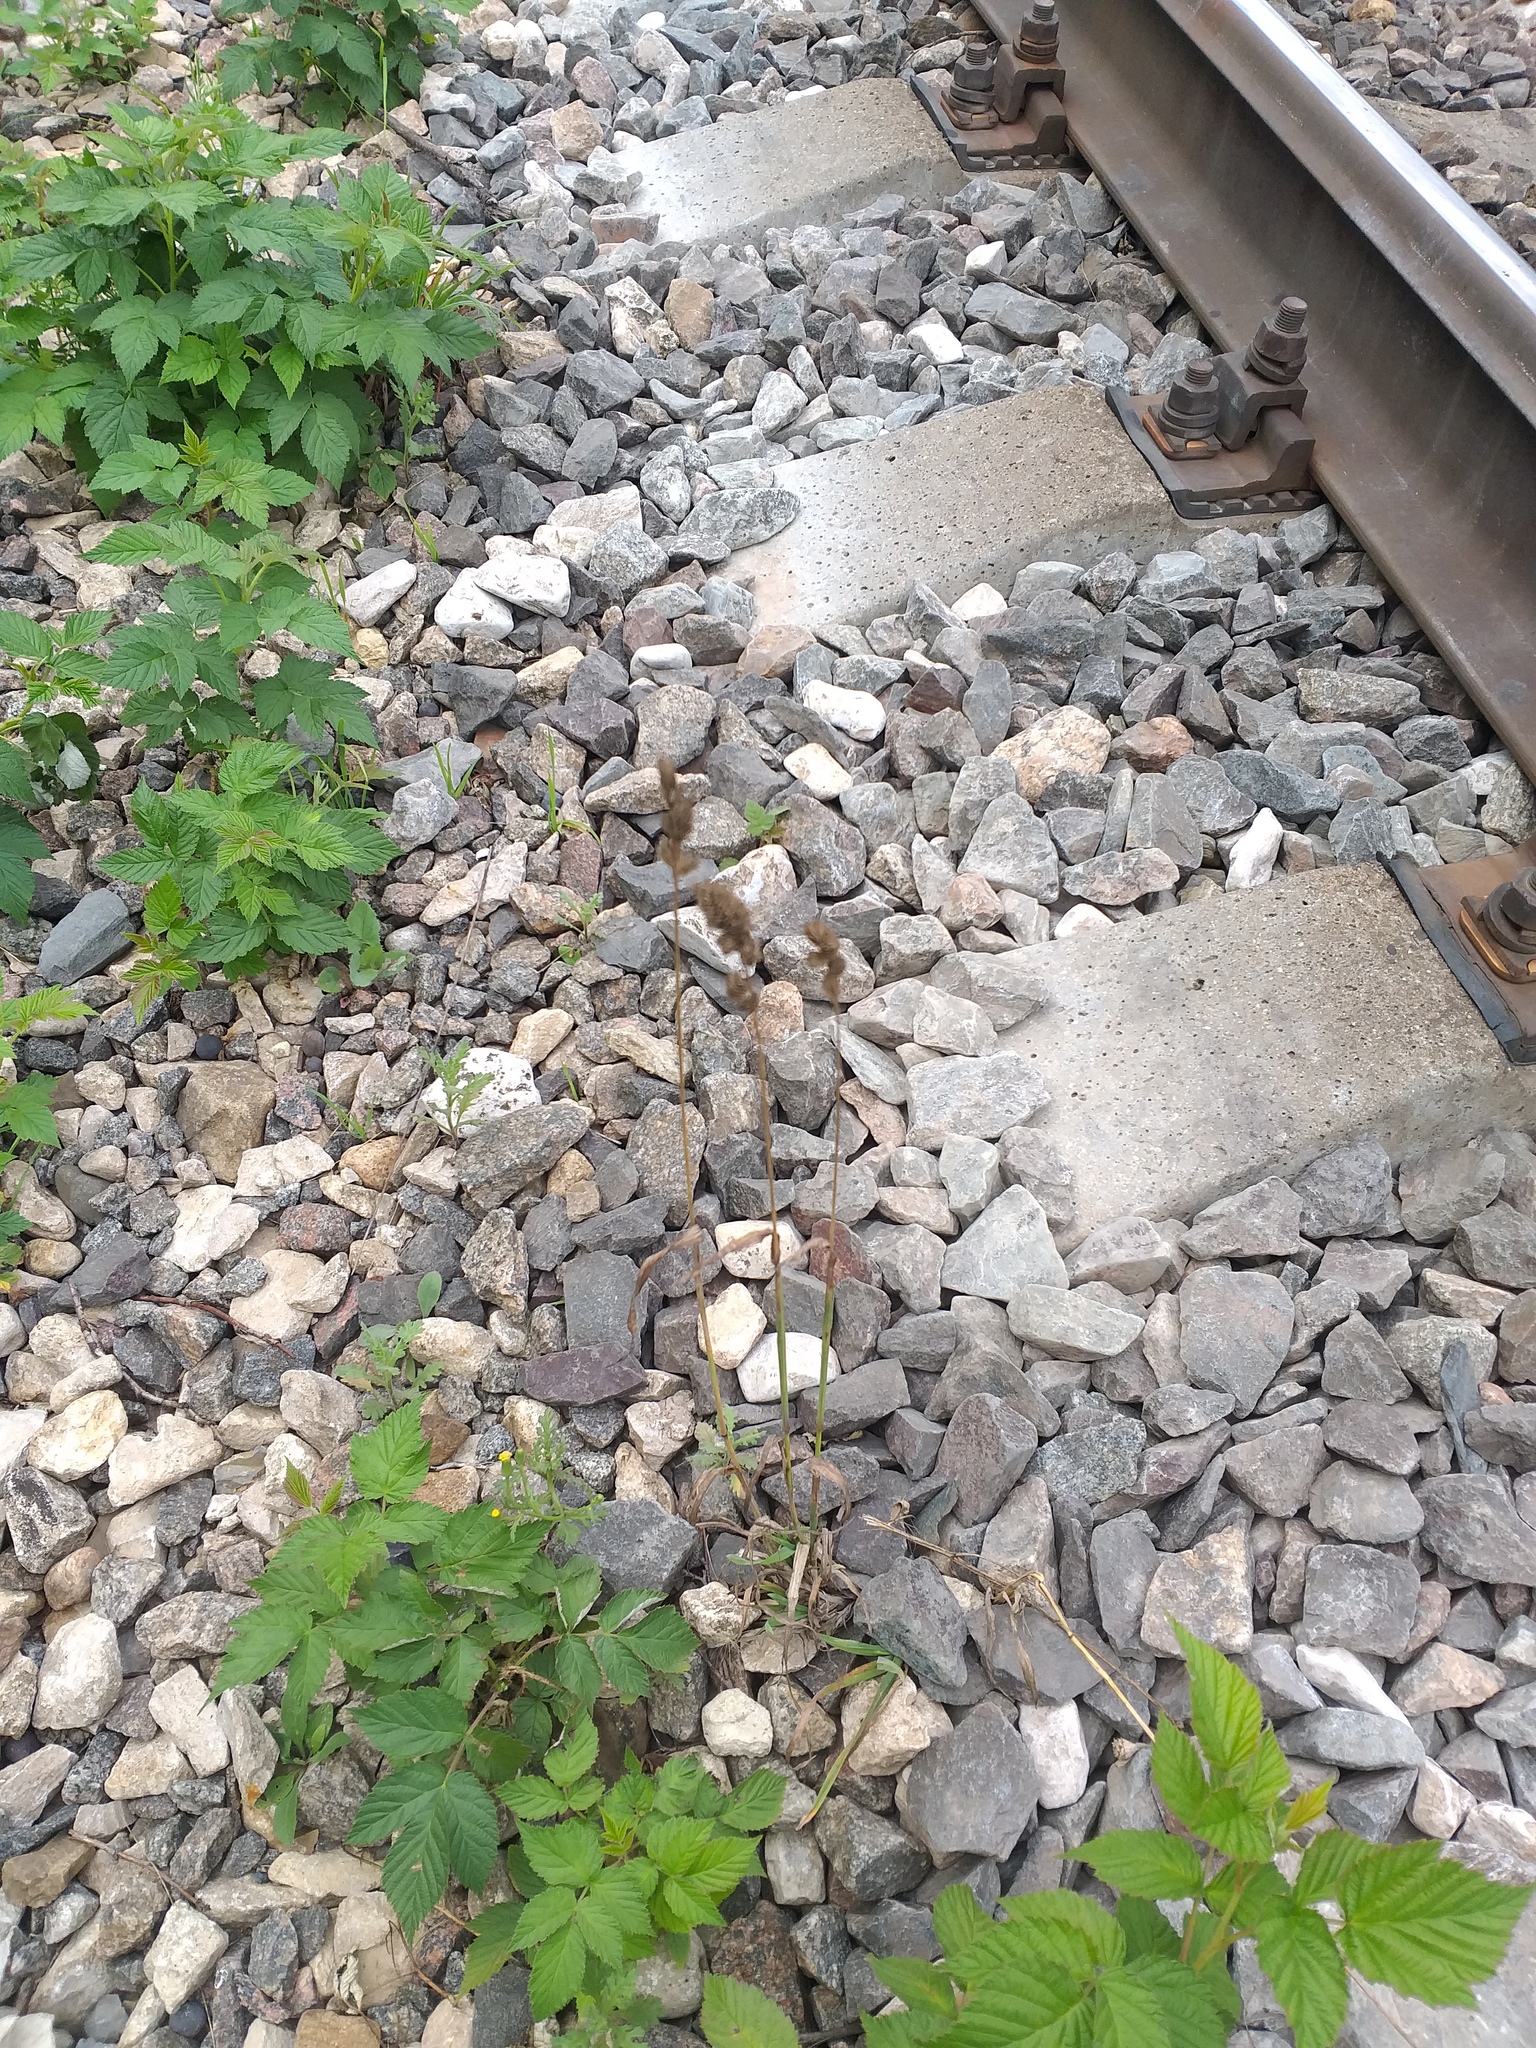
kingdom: Plantae
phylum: Tracheophyta
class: Liliopsida
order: Poales
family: Poaceae
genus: Dactylis
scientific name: Dactylis glomerata
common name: Orchardgrass
